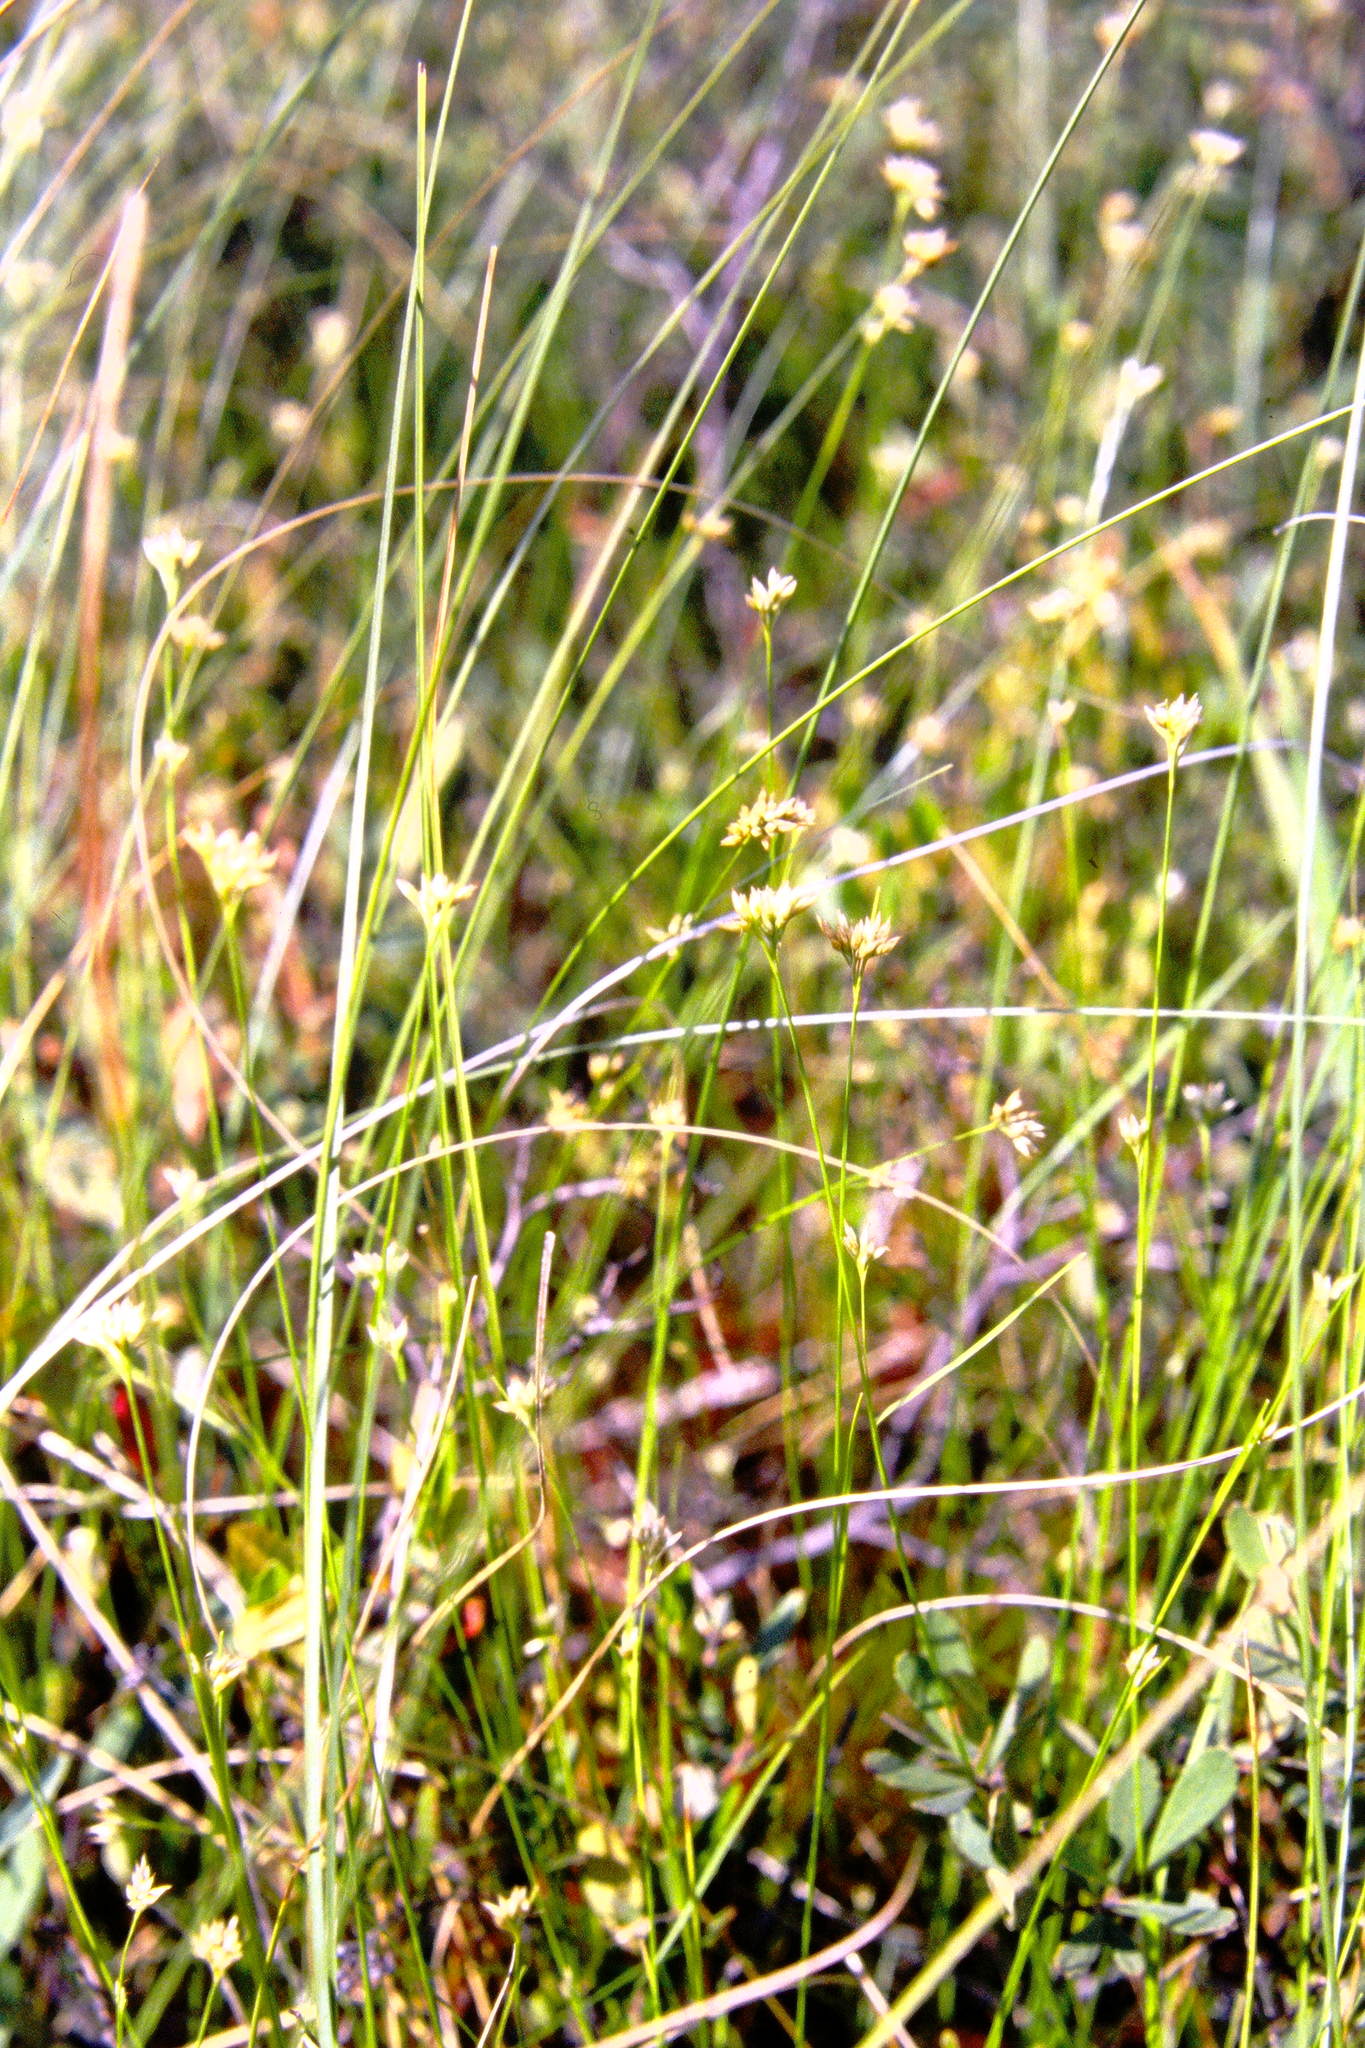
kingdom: Plantae
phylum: Tracheophyta
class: Liliopsida
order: Poales
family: Cyperaceae
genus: Rhynchospora
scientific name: Rhynchospora alba
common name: White beak-sedge
